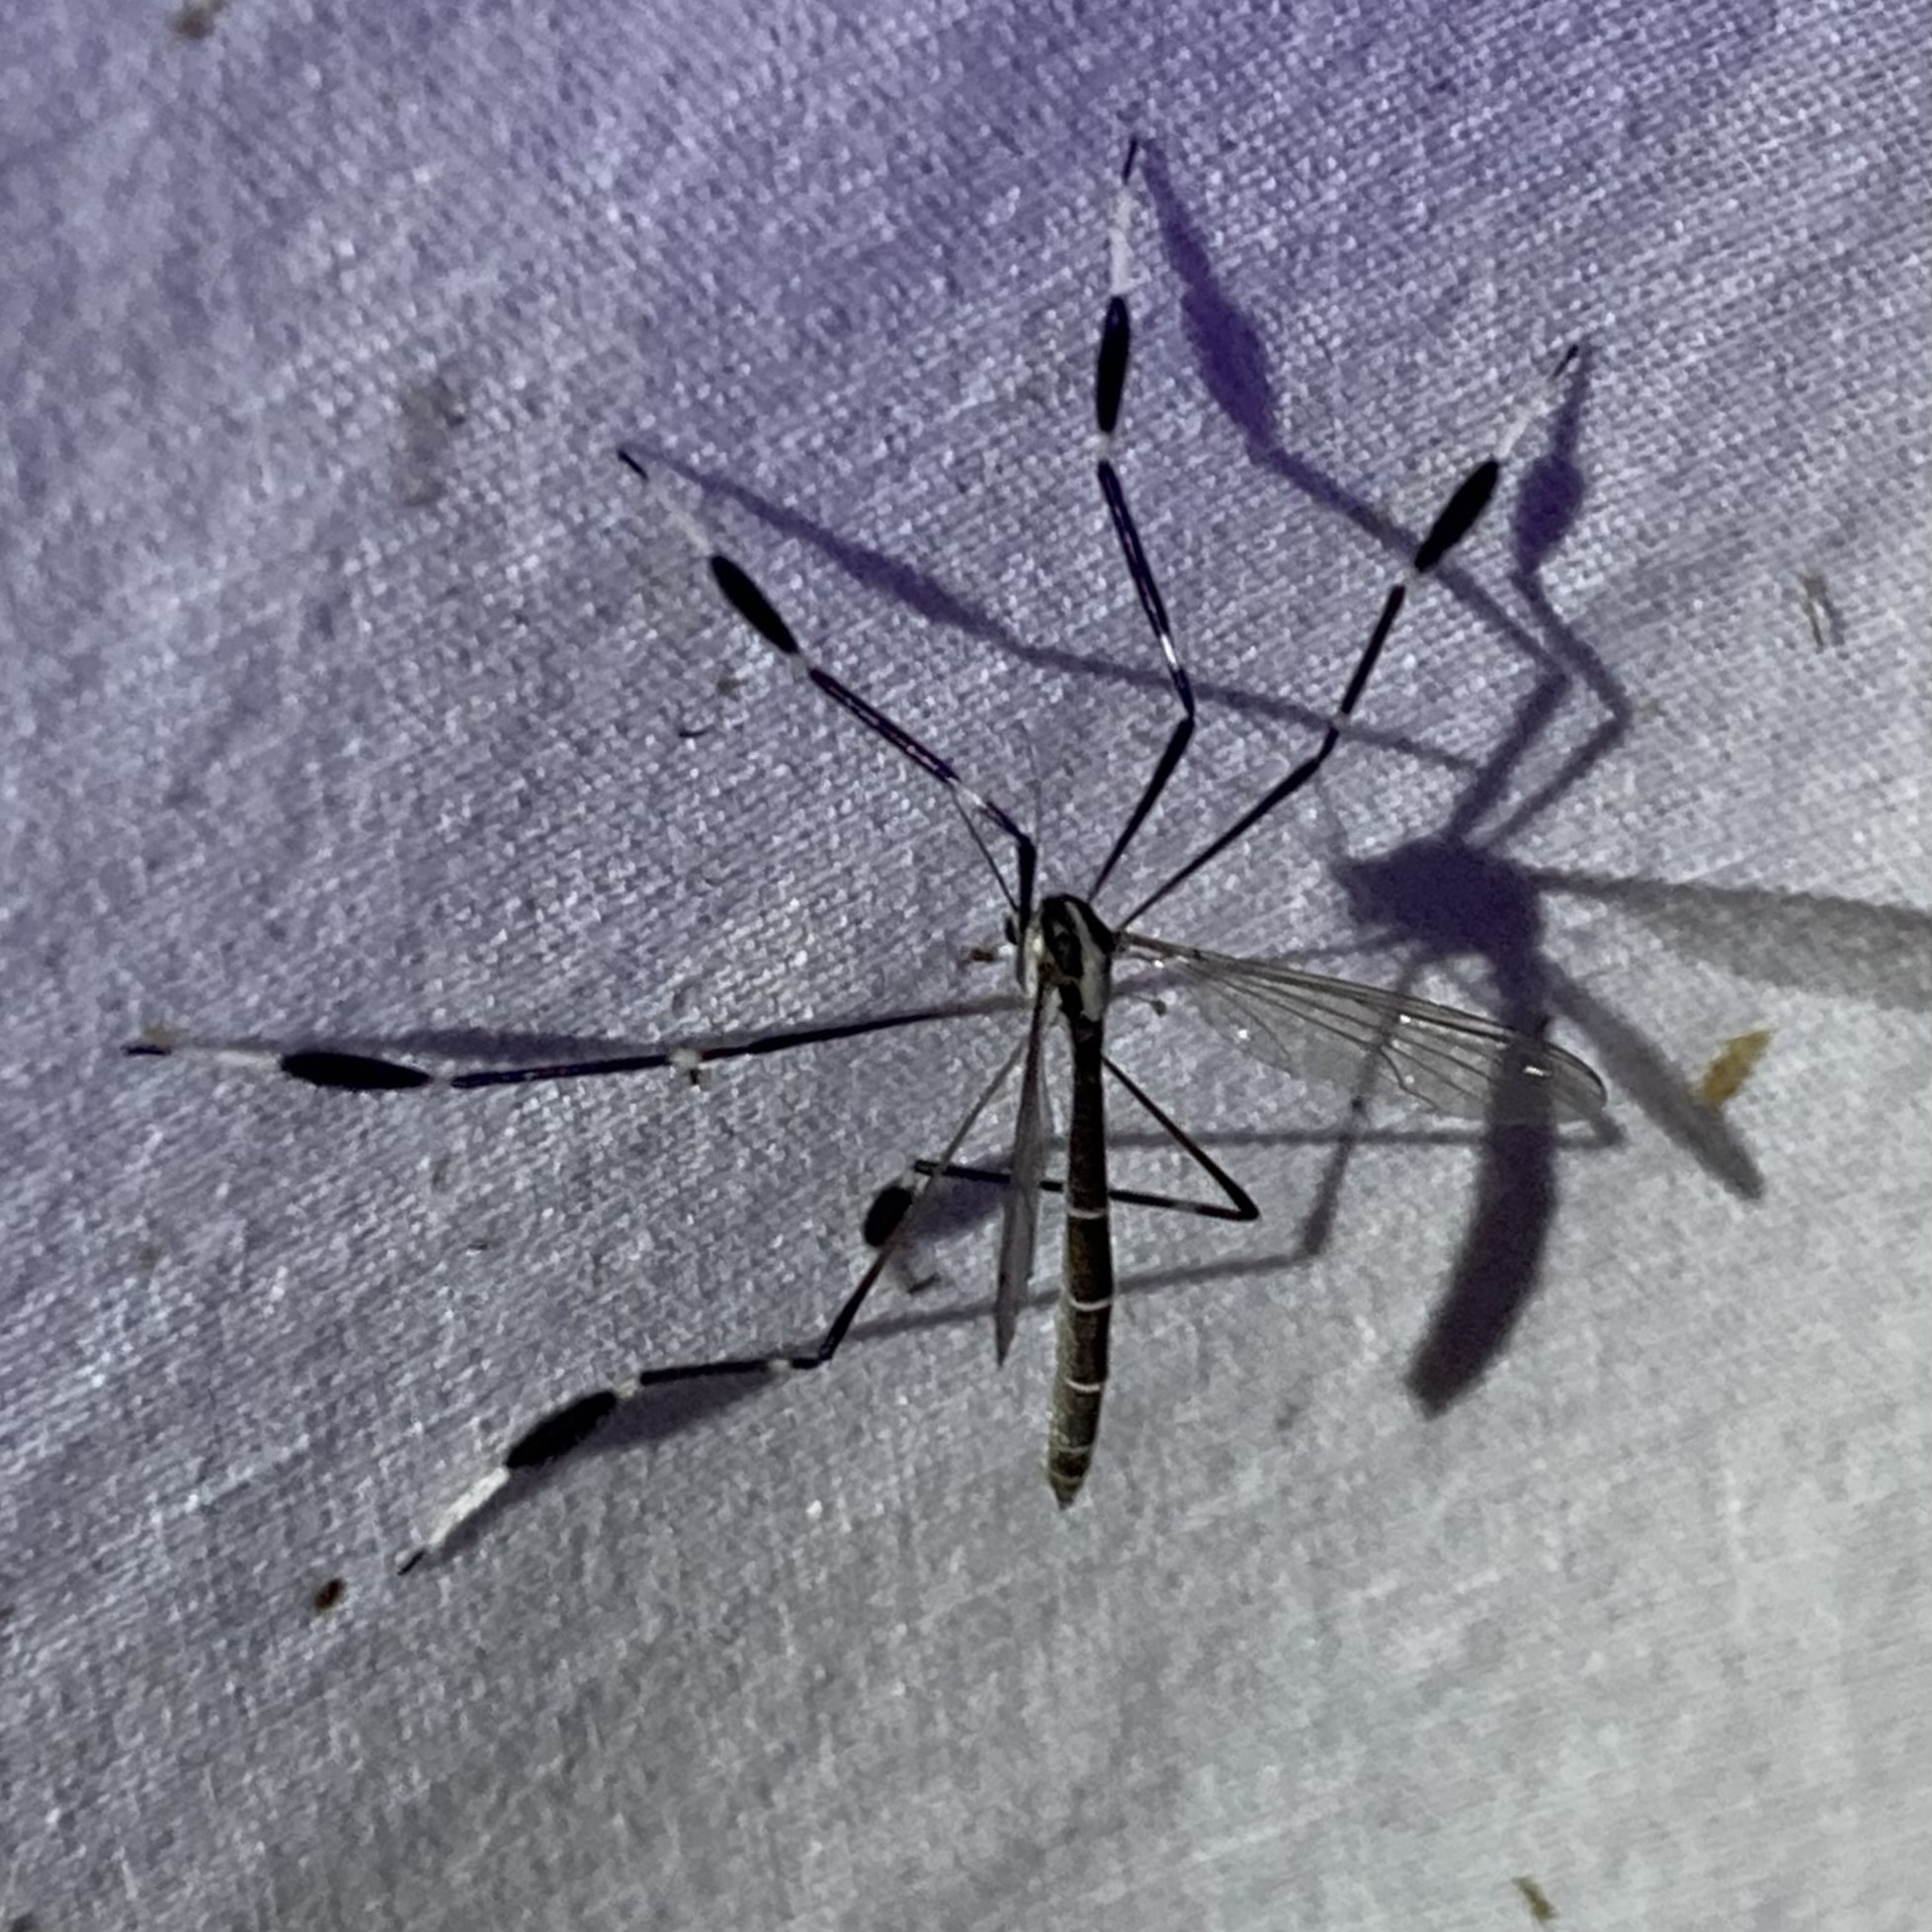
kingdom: Animalia
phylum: Arthropoda
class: Insecta
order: Diptera
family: Ptychopteridae
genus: Bittacomorpha
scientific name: Bittacomorpha clavipes
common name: Eastern phantom crane fly
